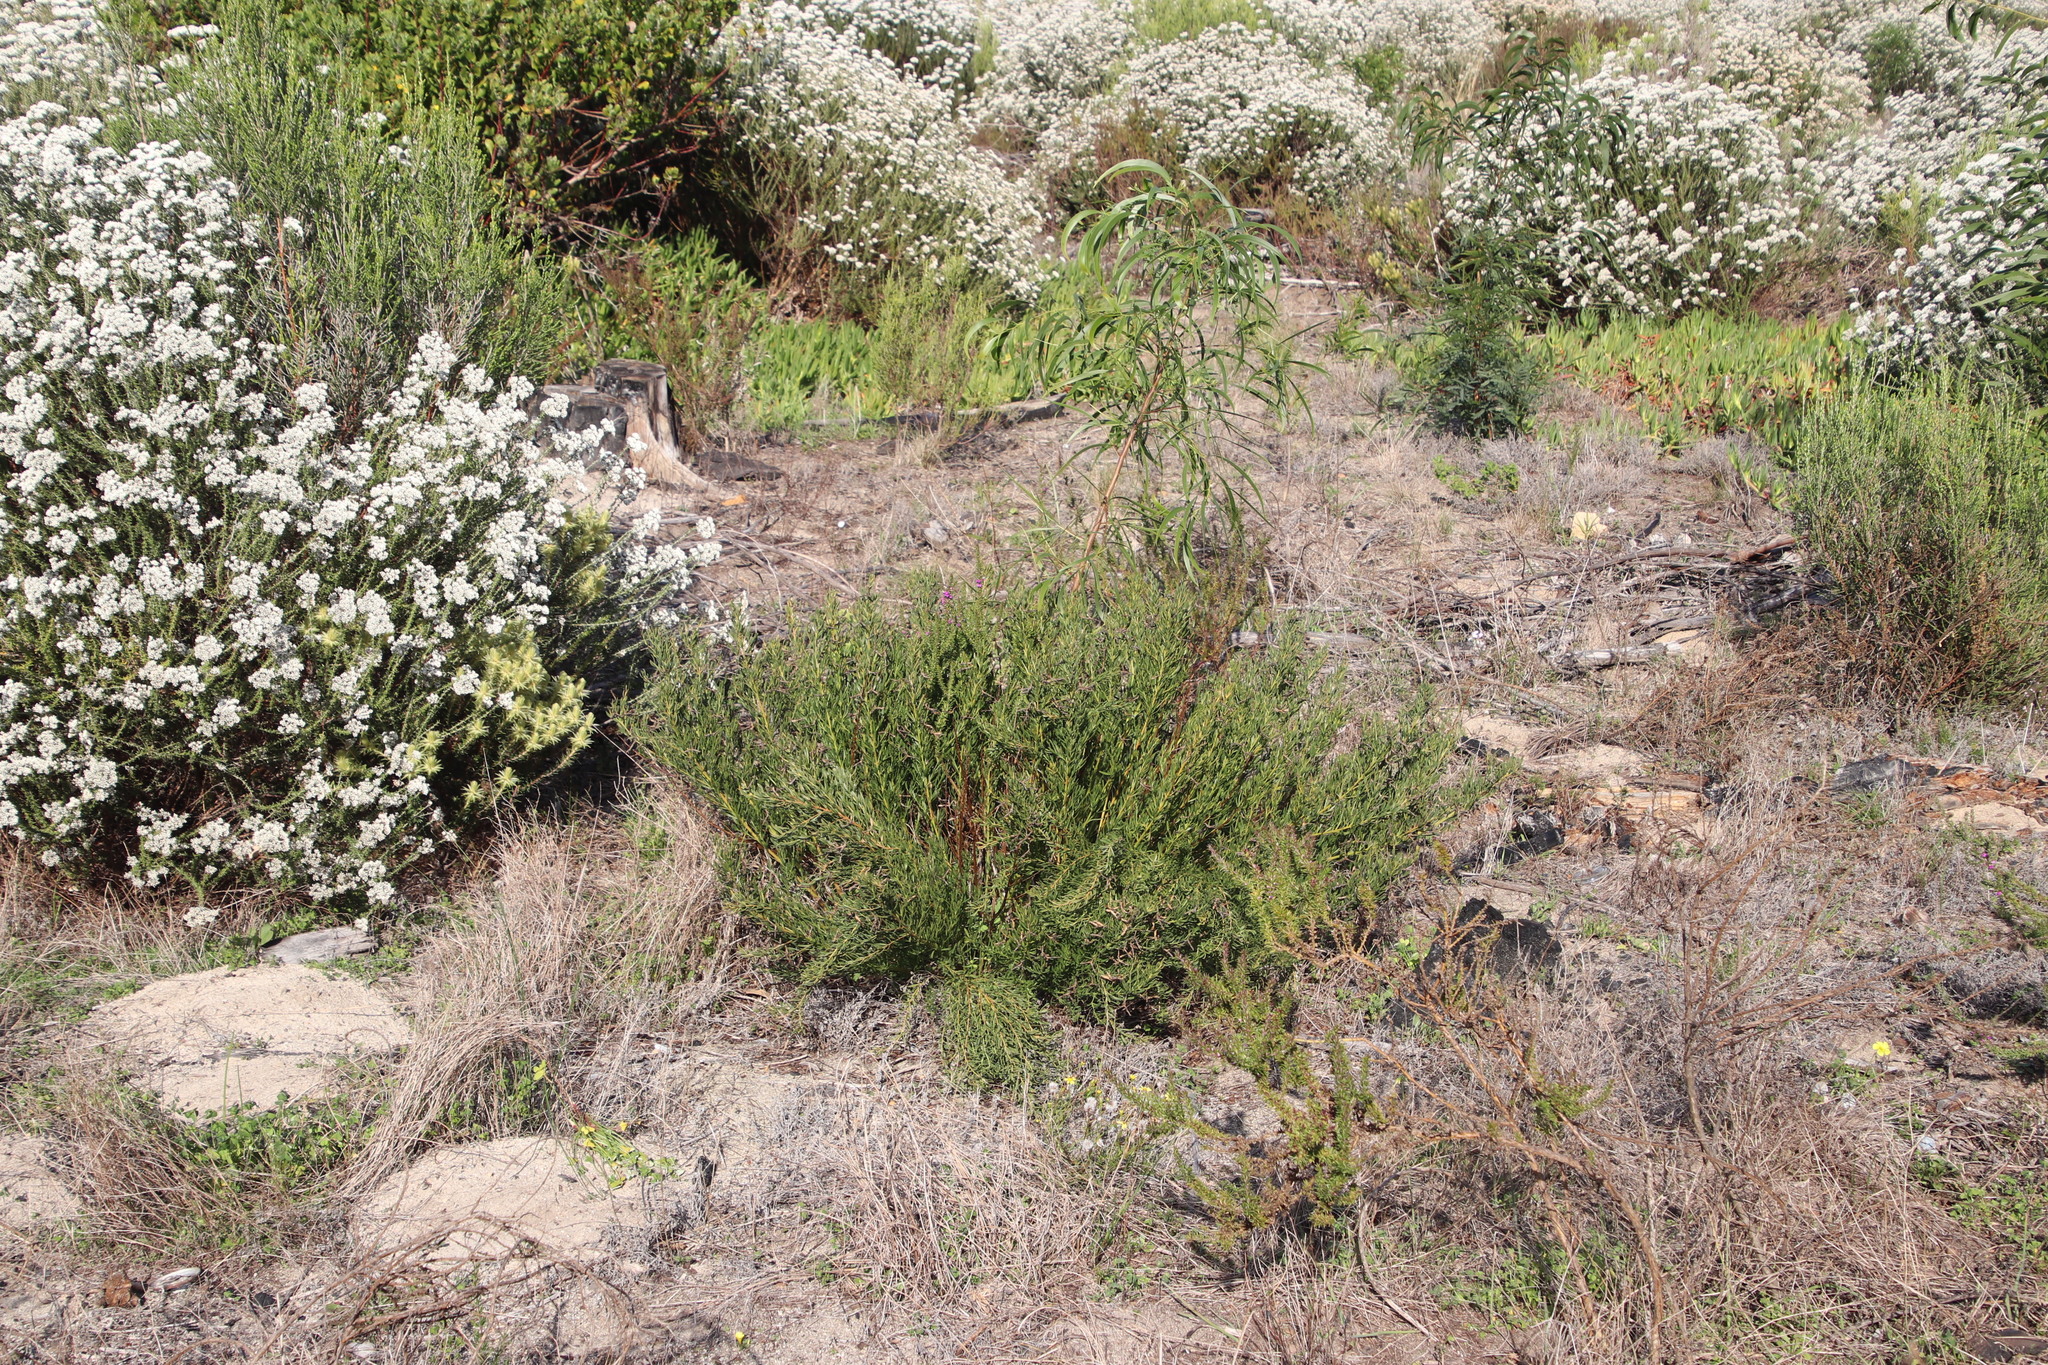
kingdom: Plantae
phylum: Tracheophyta
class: Magnoliopsida
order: Fabales
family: Fabaceae
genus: Rafnia
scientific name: Rafnia capensis
